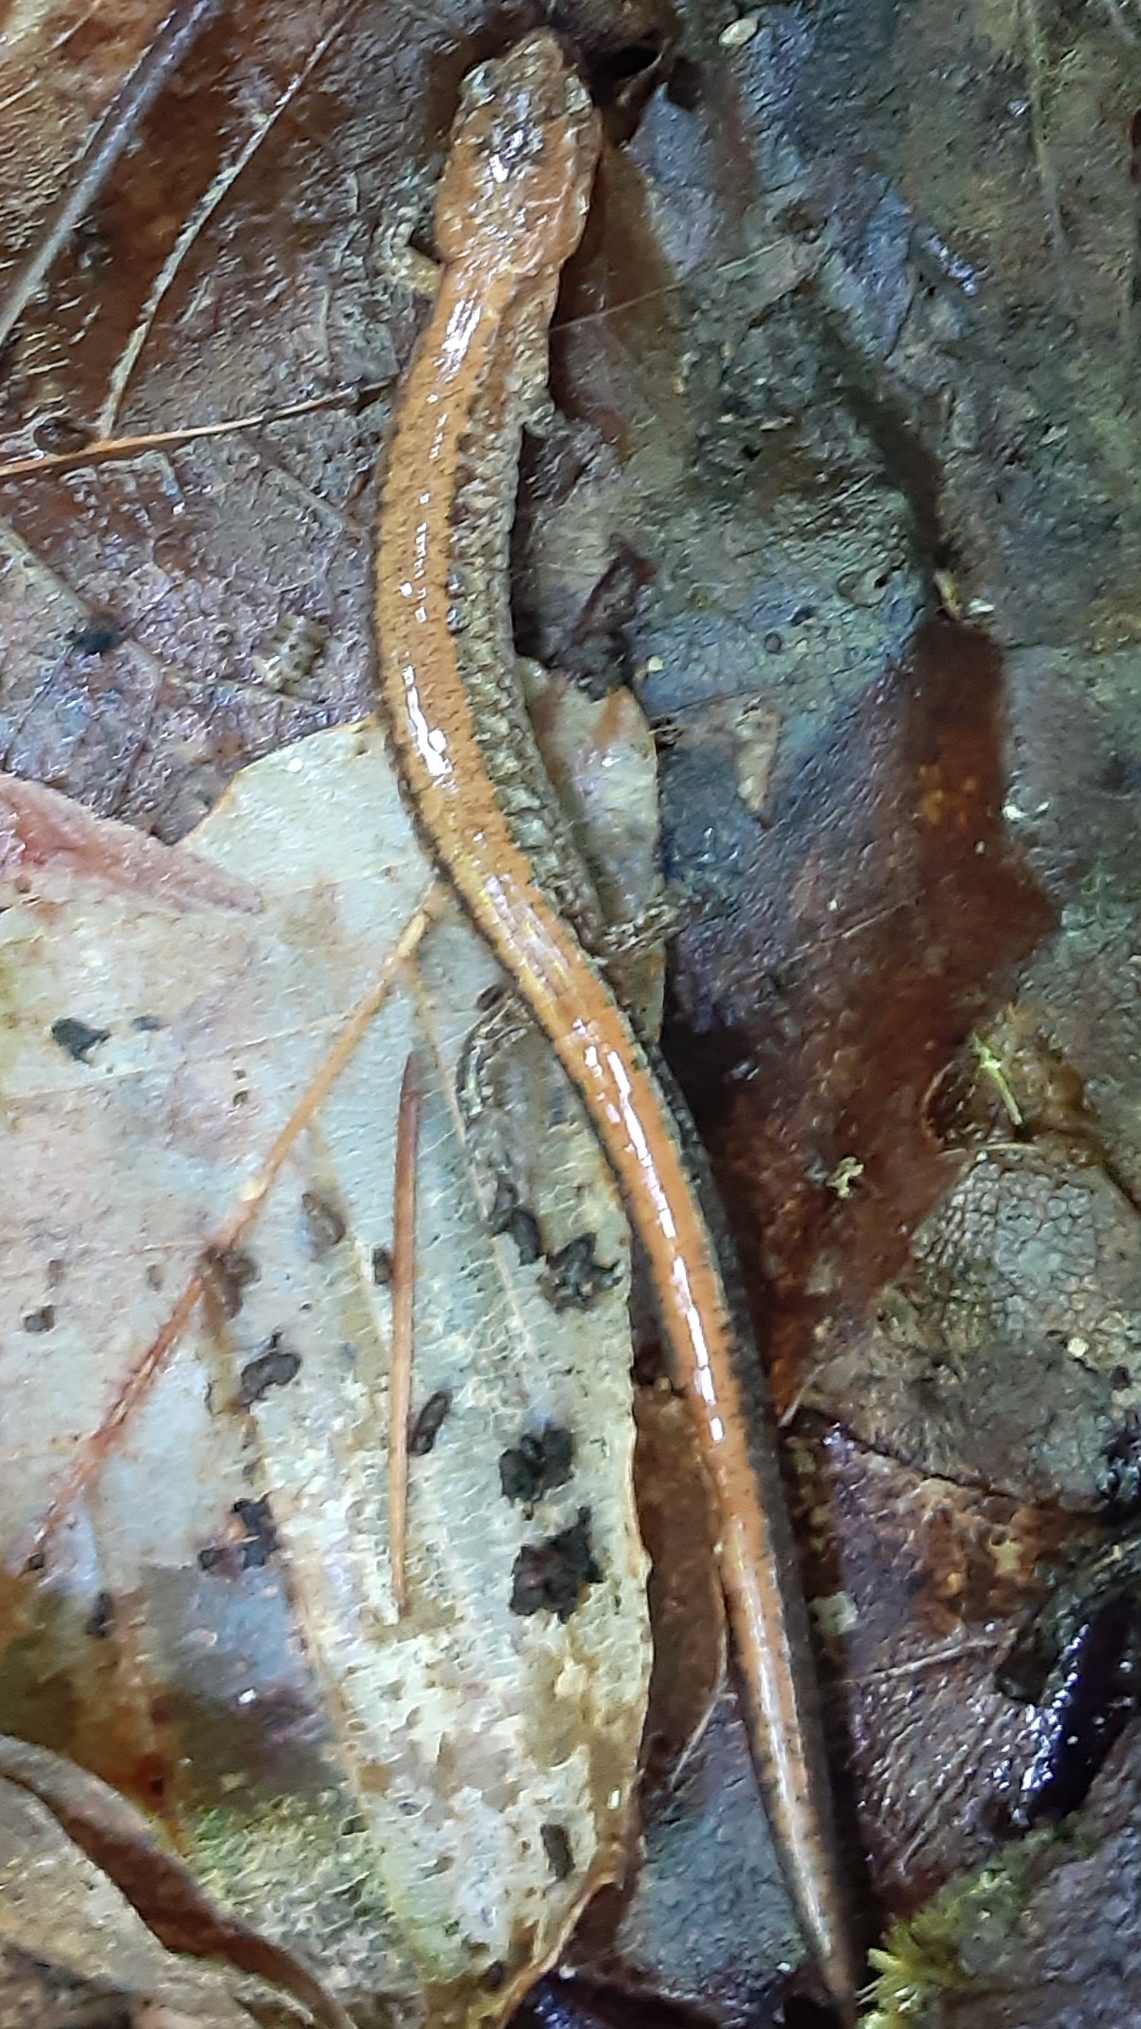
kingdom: Animalia
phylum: Chordata
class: Amphibia
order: Caudata
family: Plethodontidae
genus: Plethodon
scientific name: Plethodon cinereus
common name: Redback salamander
